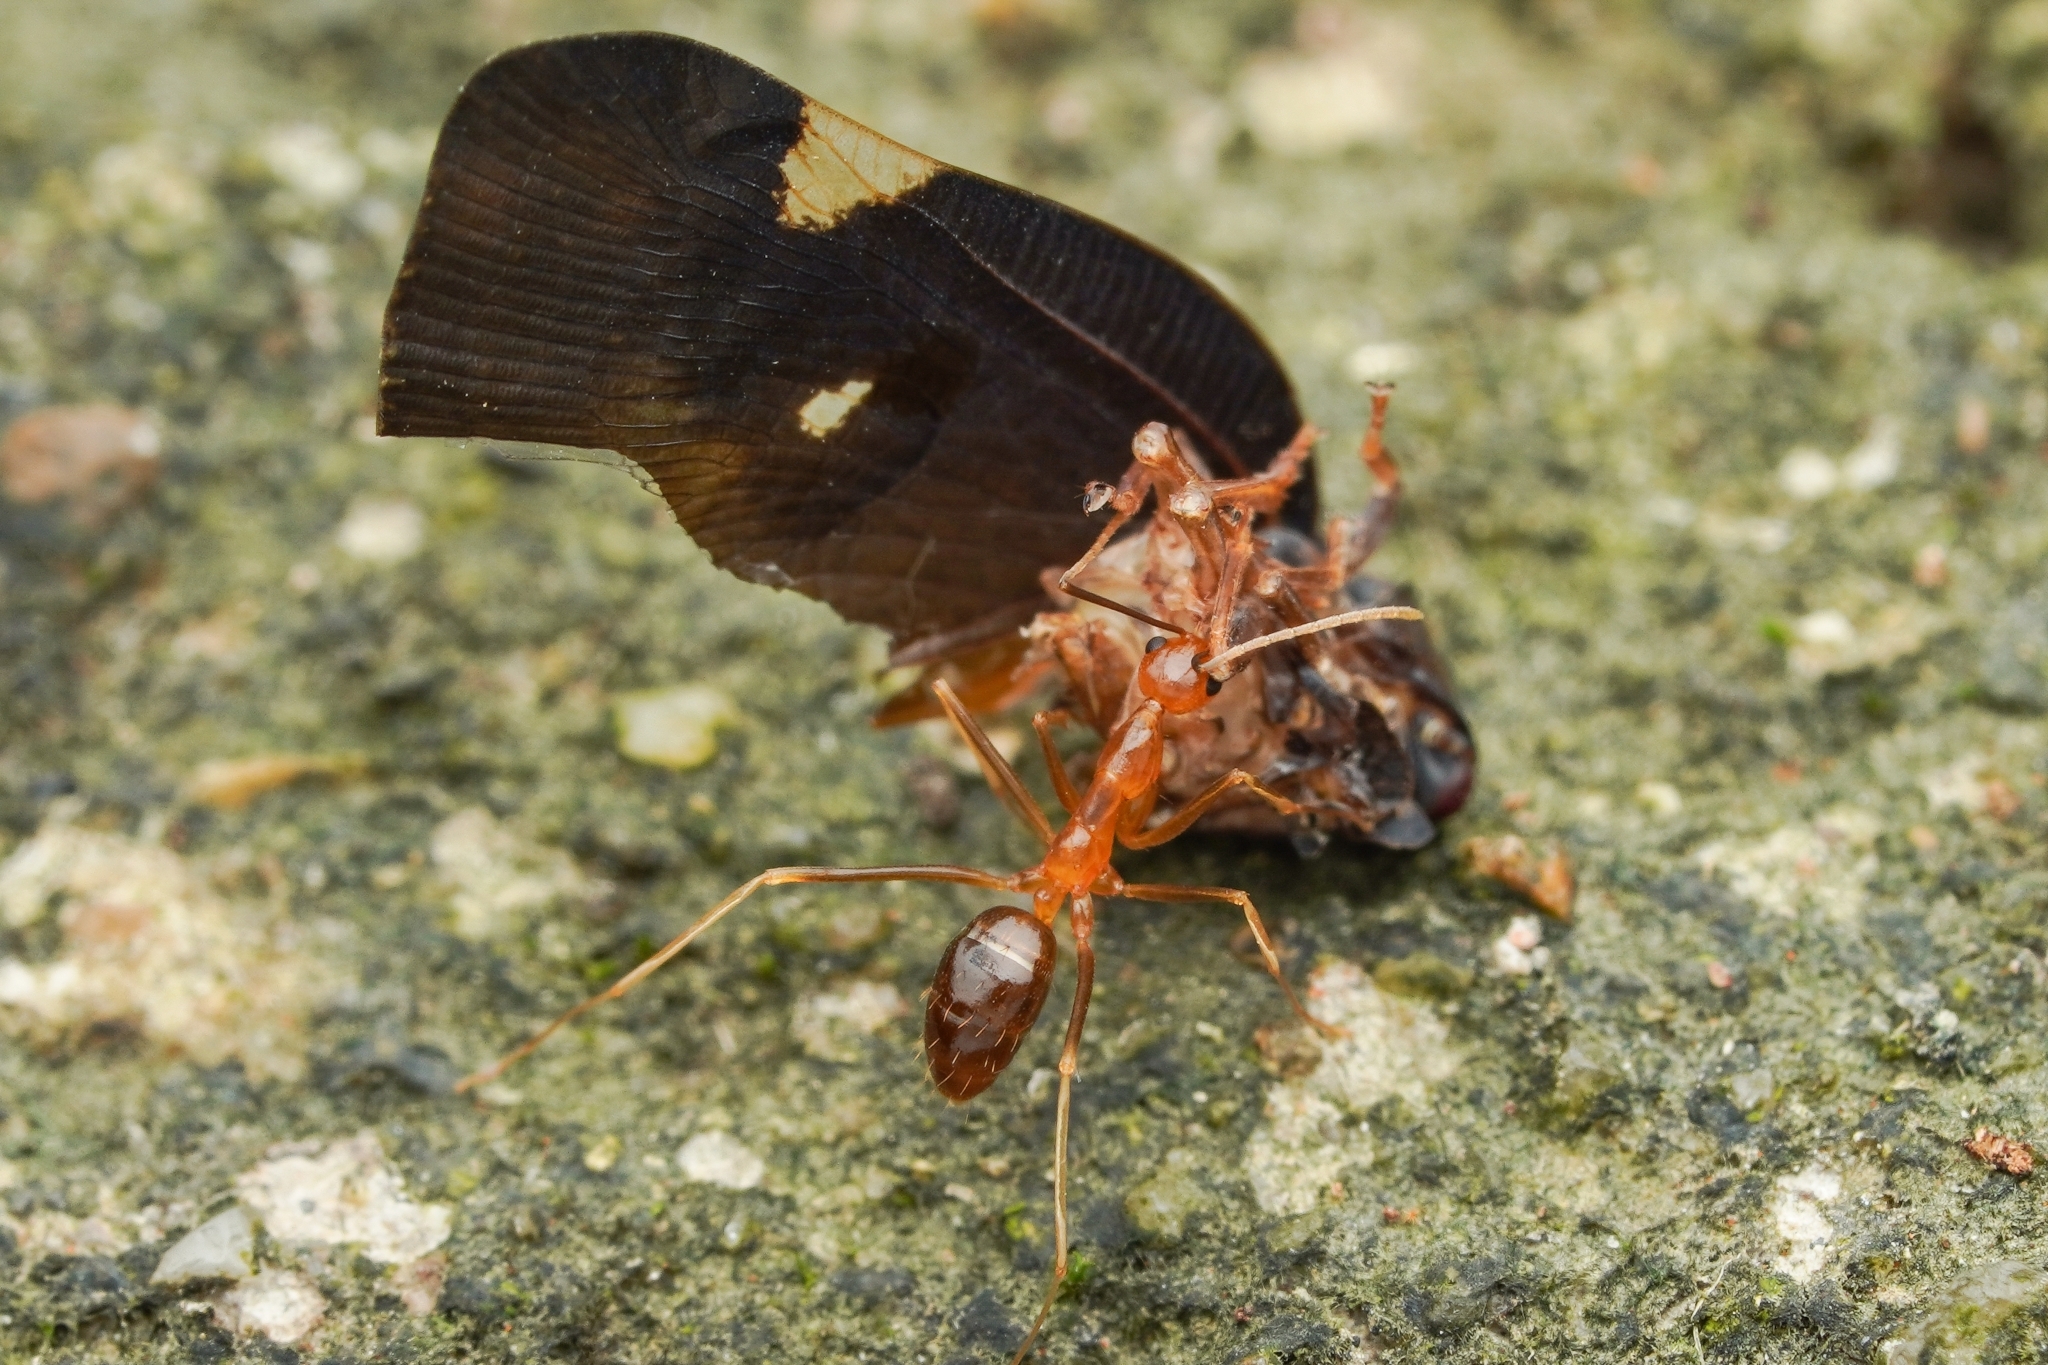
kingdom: Animalia
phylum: Arthropoda
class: Insecta
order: Hymenoptera
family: Formicidae
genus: Anoplolepis
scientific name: Anoplolepis gracilipes
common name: Ant
